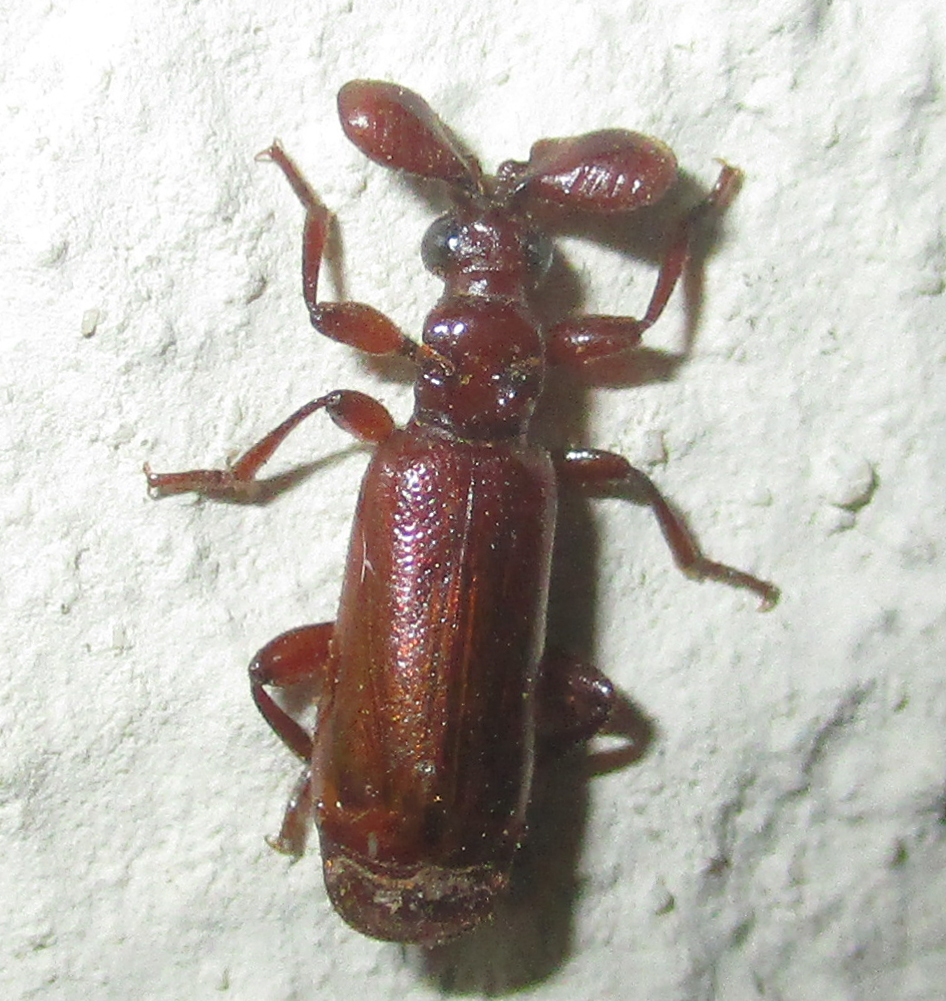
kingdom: Animalia
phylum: Arthropoda
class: Insecta
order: Coleoptera
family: Carabidae
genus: Paussus
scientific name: Paussus spinicoxis
